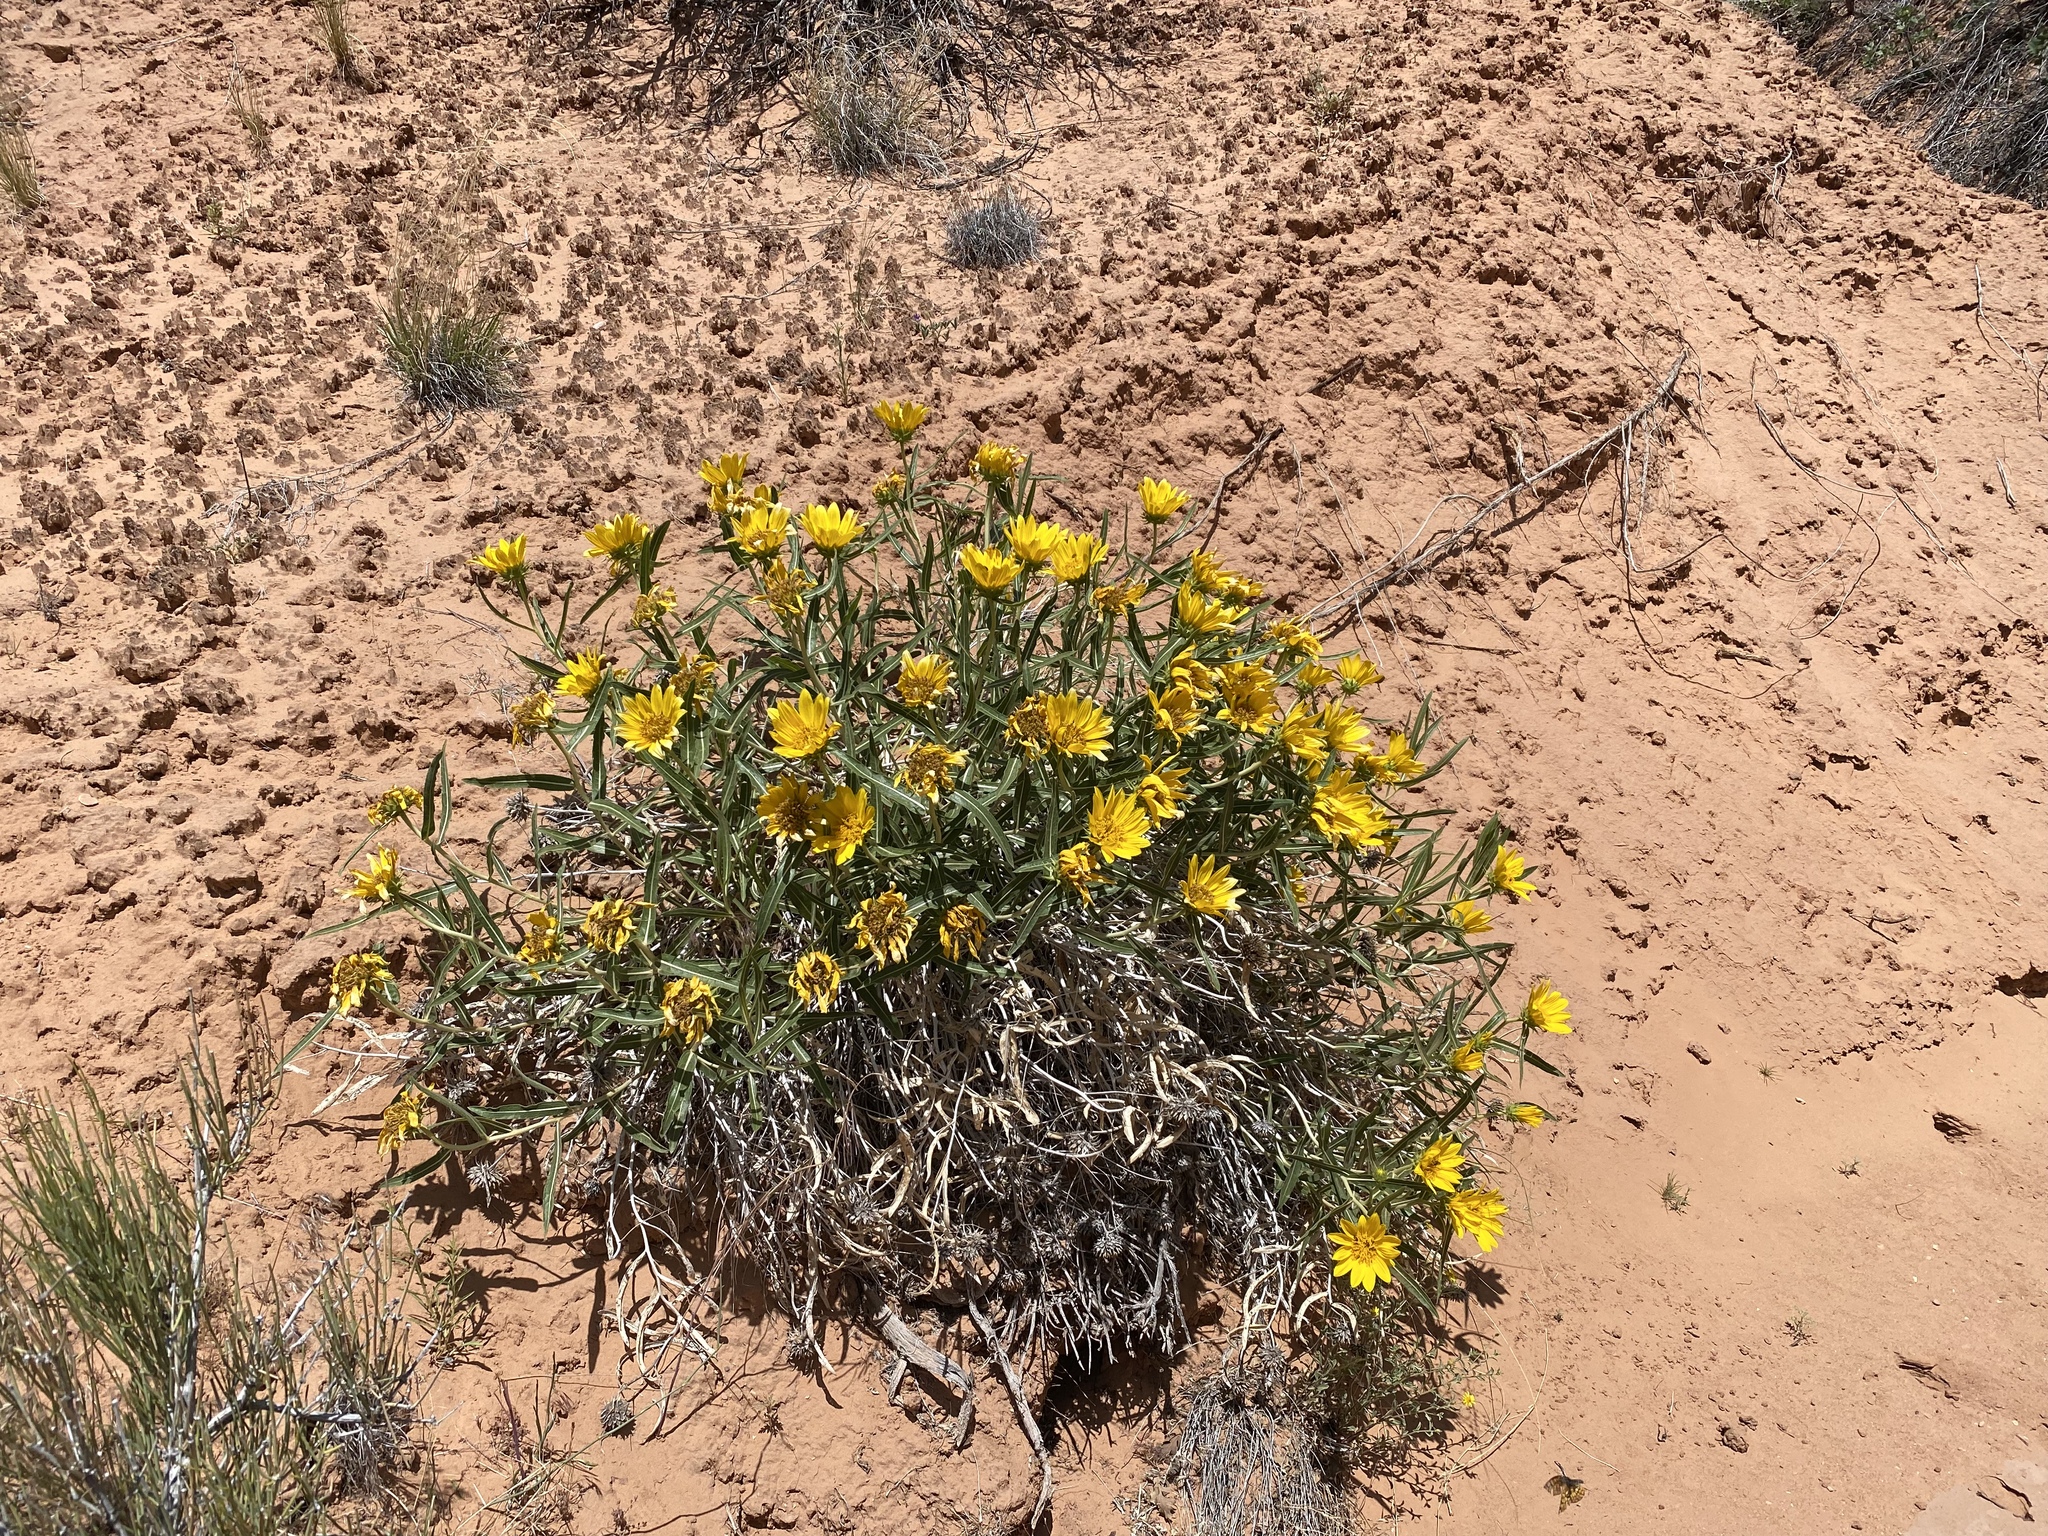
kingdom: Plantae
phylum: Tracheophyta
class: Magnoliopsida
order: Asterales
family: Asteraceae
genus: Scabrethia
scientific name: Scabrethia scabra
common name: Rough mules's-ears
